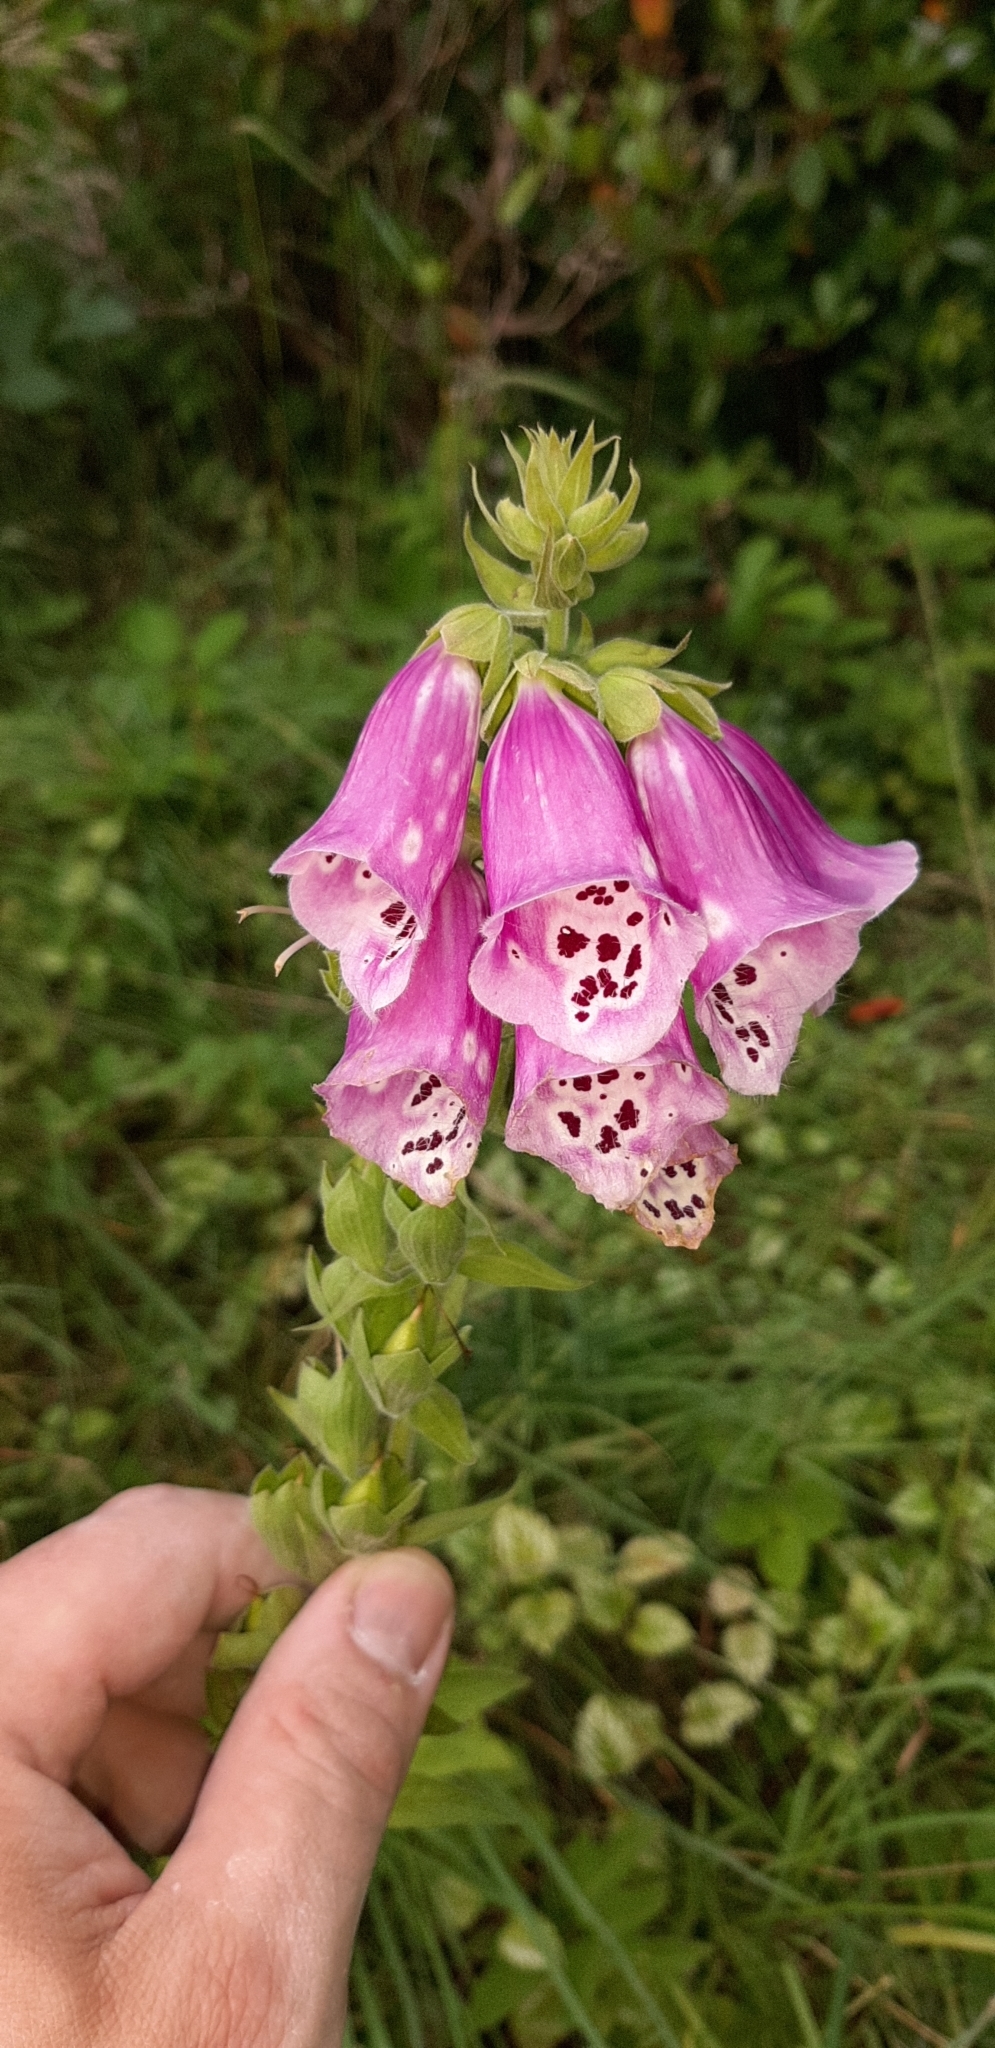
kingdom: Plantae
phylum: Tracheophyta
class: Magnoliopsida
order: Lamiales
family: Plantaginaceae
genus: Digitalis
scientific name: Digitalis purpurea
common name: Foxglove
